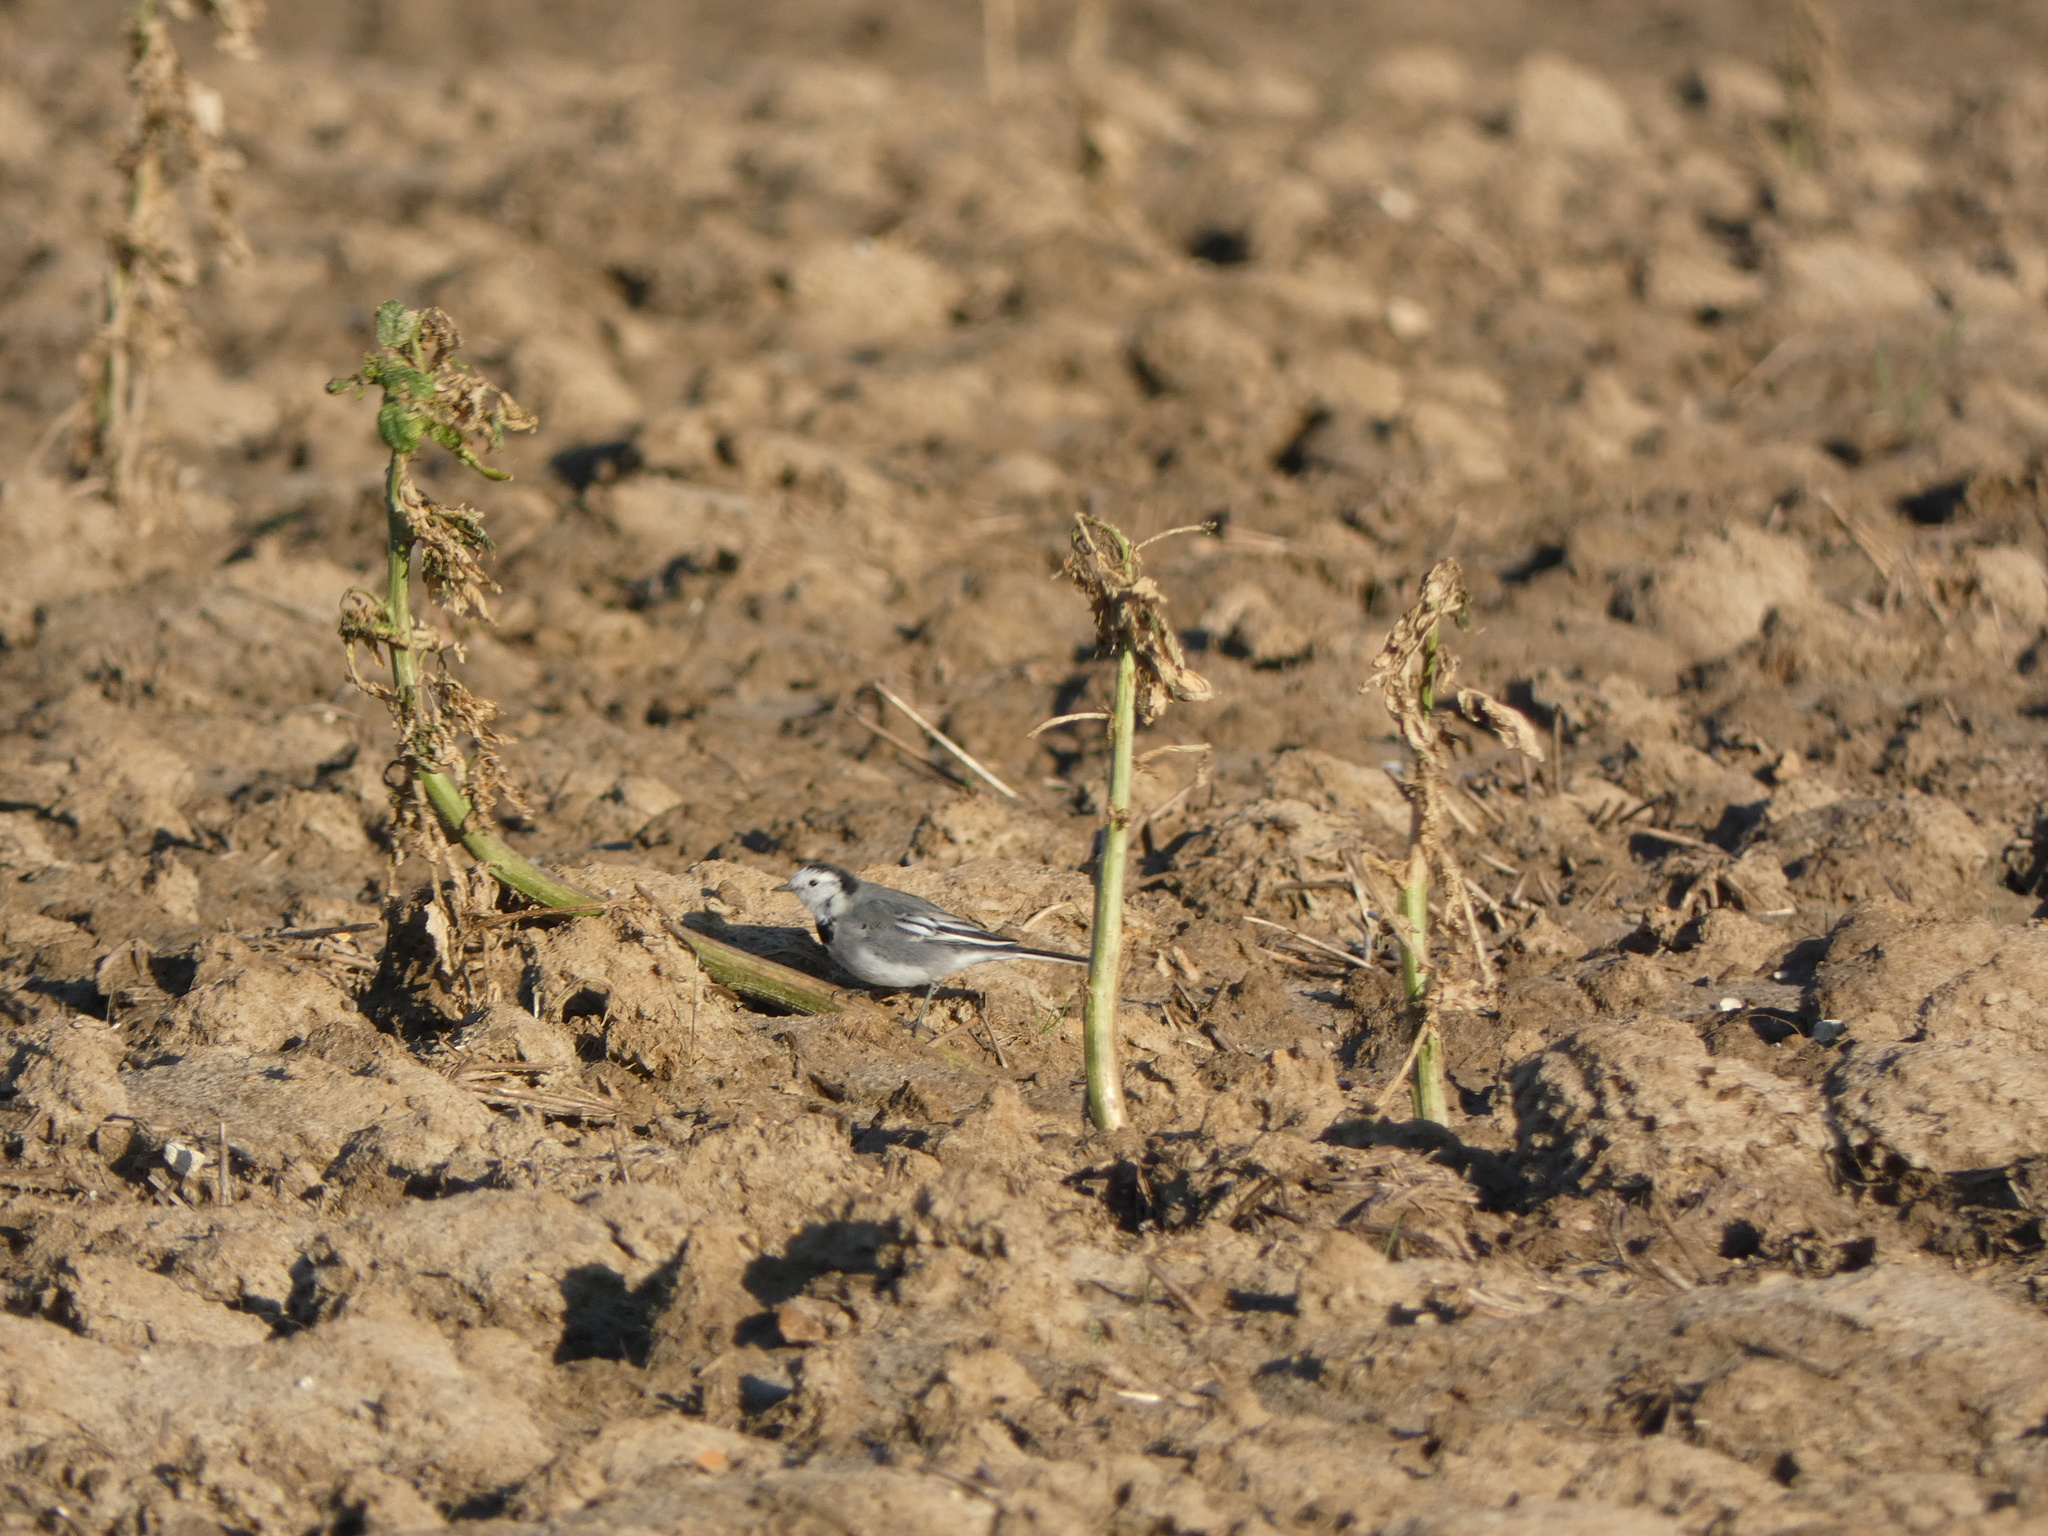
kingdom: Animalia
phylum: Chordata
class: Aves
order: Passeriformes
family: Motacillidae
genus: Motacilla
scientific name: Motacilla alba
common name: White wagtail
